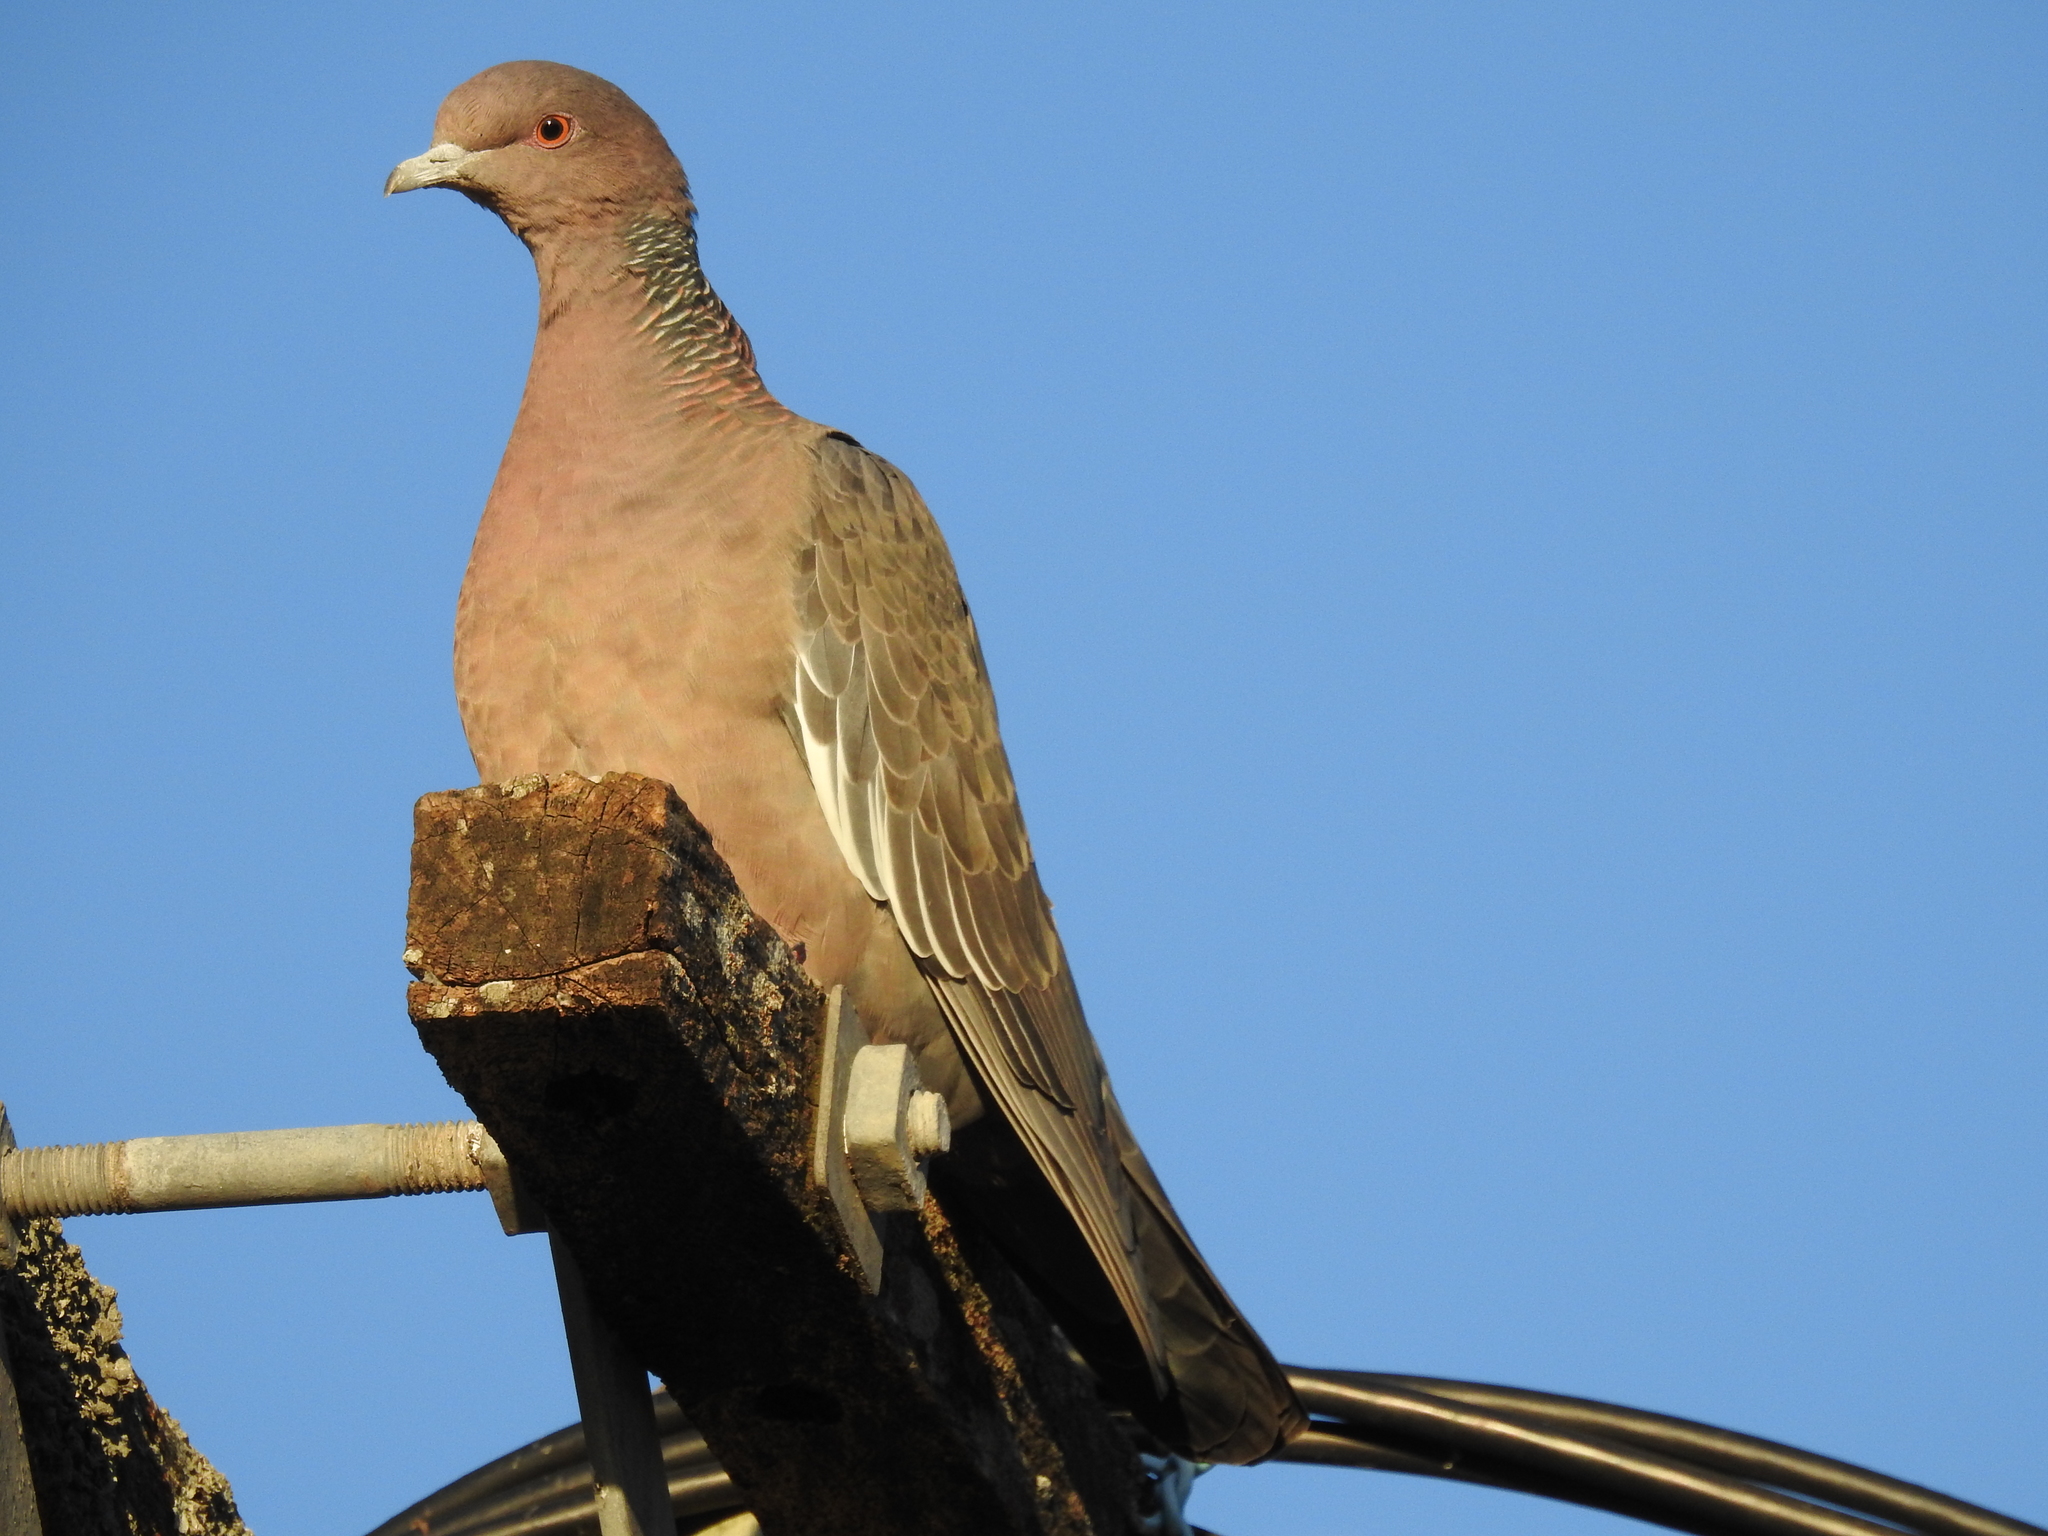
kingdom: Animalia
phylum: Chordata
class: Aves
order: Columbiformes
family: Columbidae
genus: Patagioenas
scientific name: Patagioenas picazuro
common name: Picazuro pigeon
